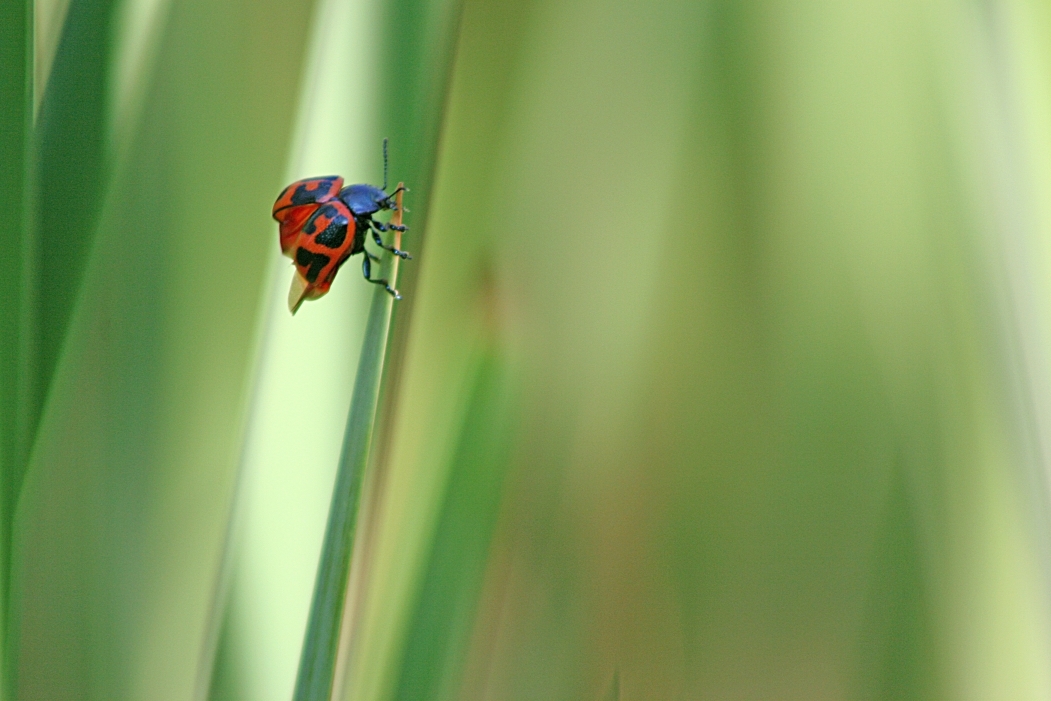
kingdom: Animalia
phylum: Arthropoda
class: Insecta
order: Coleoptera
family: Chrysomelidae
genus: Labidomera
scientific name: Labidomera clivicollis
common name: Swamp milkweed leaf beetle
